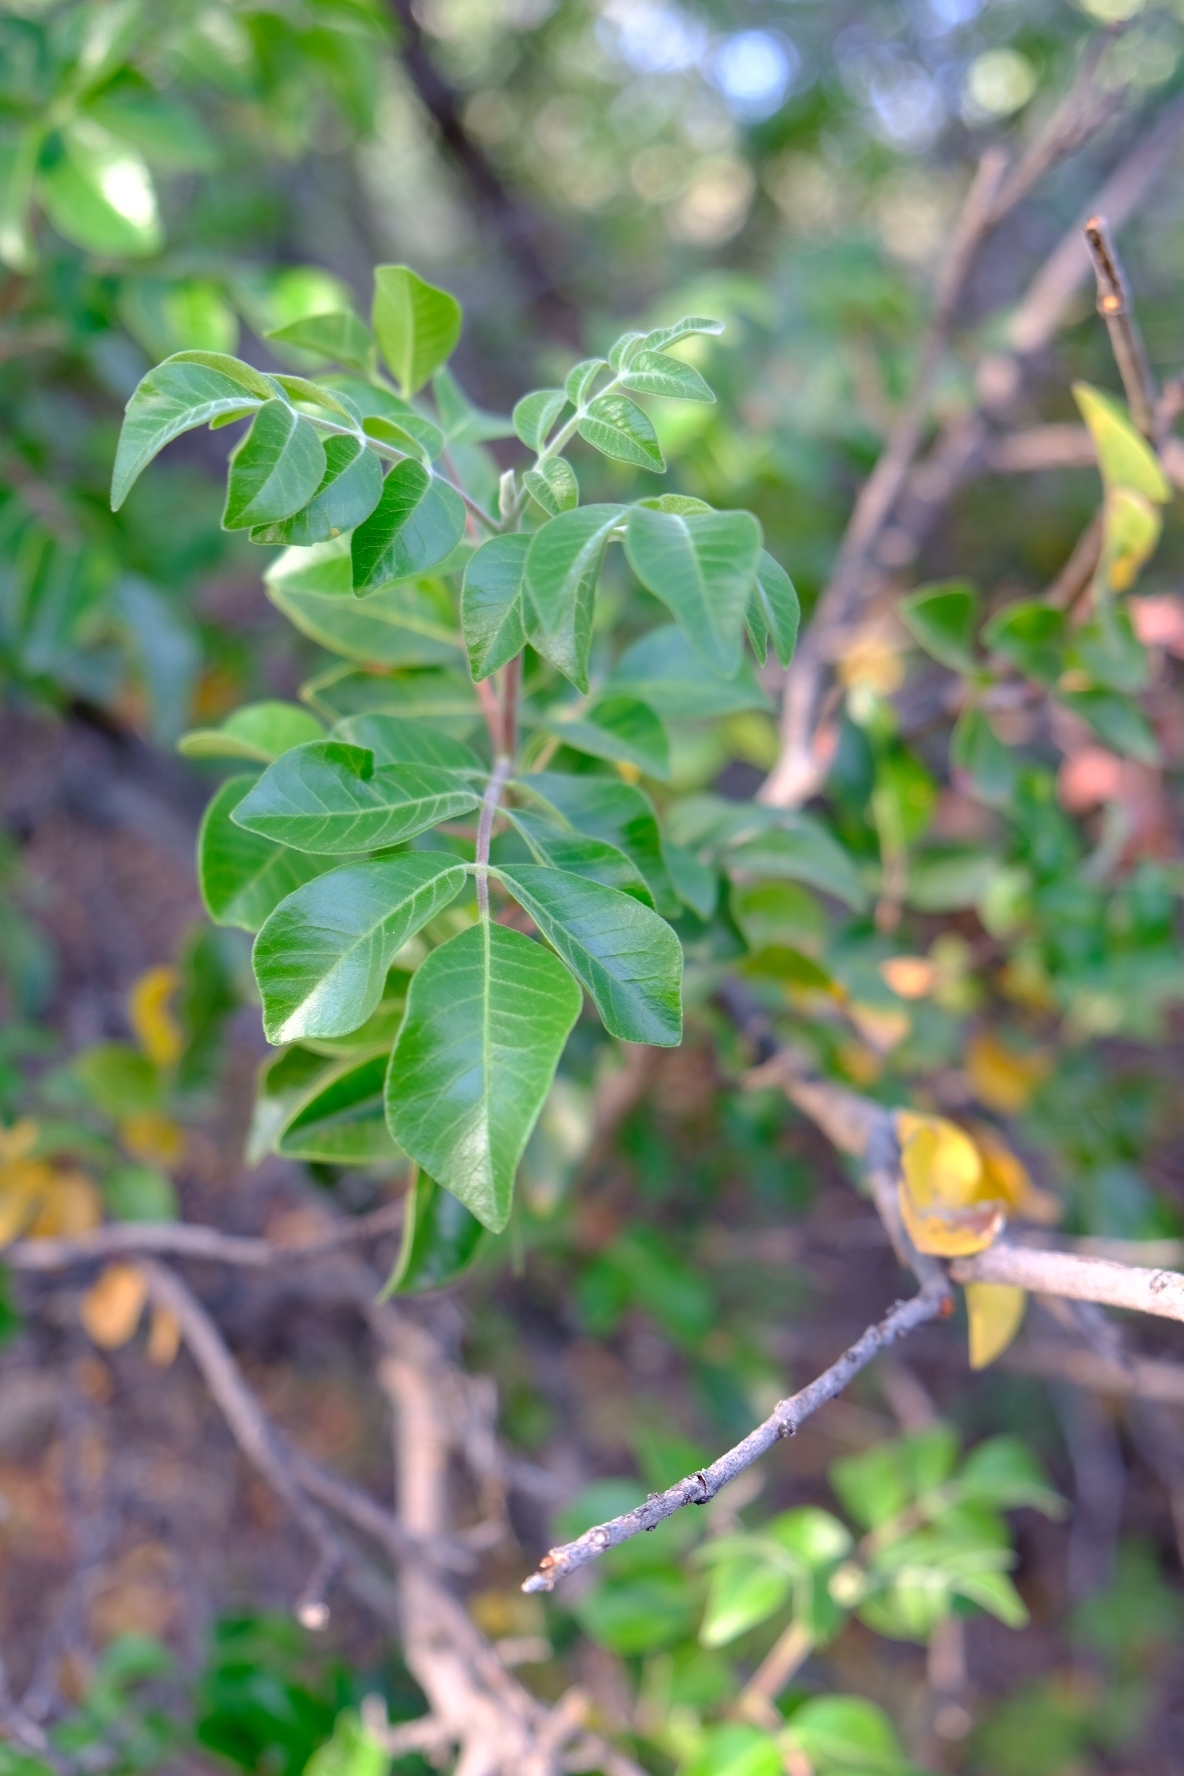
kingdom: Plantae
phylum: Tracheophyta
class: Magnoliopsida
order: Sapindales
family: Anacardiaceae
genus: Rhus
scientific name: Rhus virens
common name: Evergreen sumac
